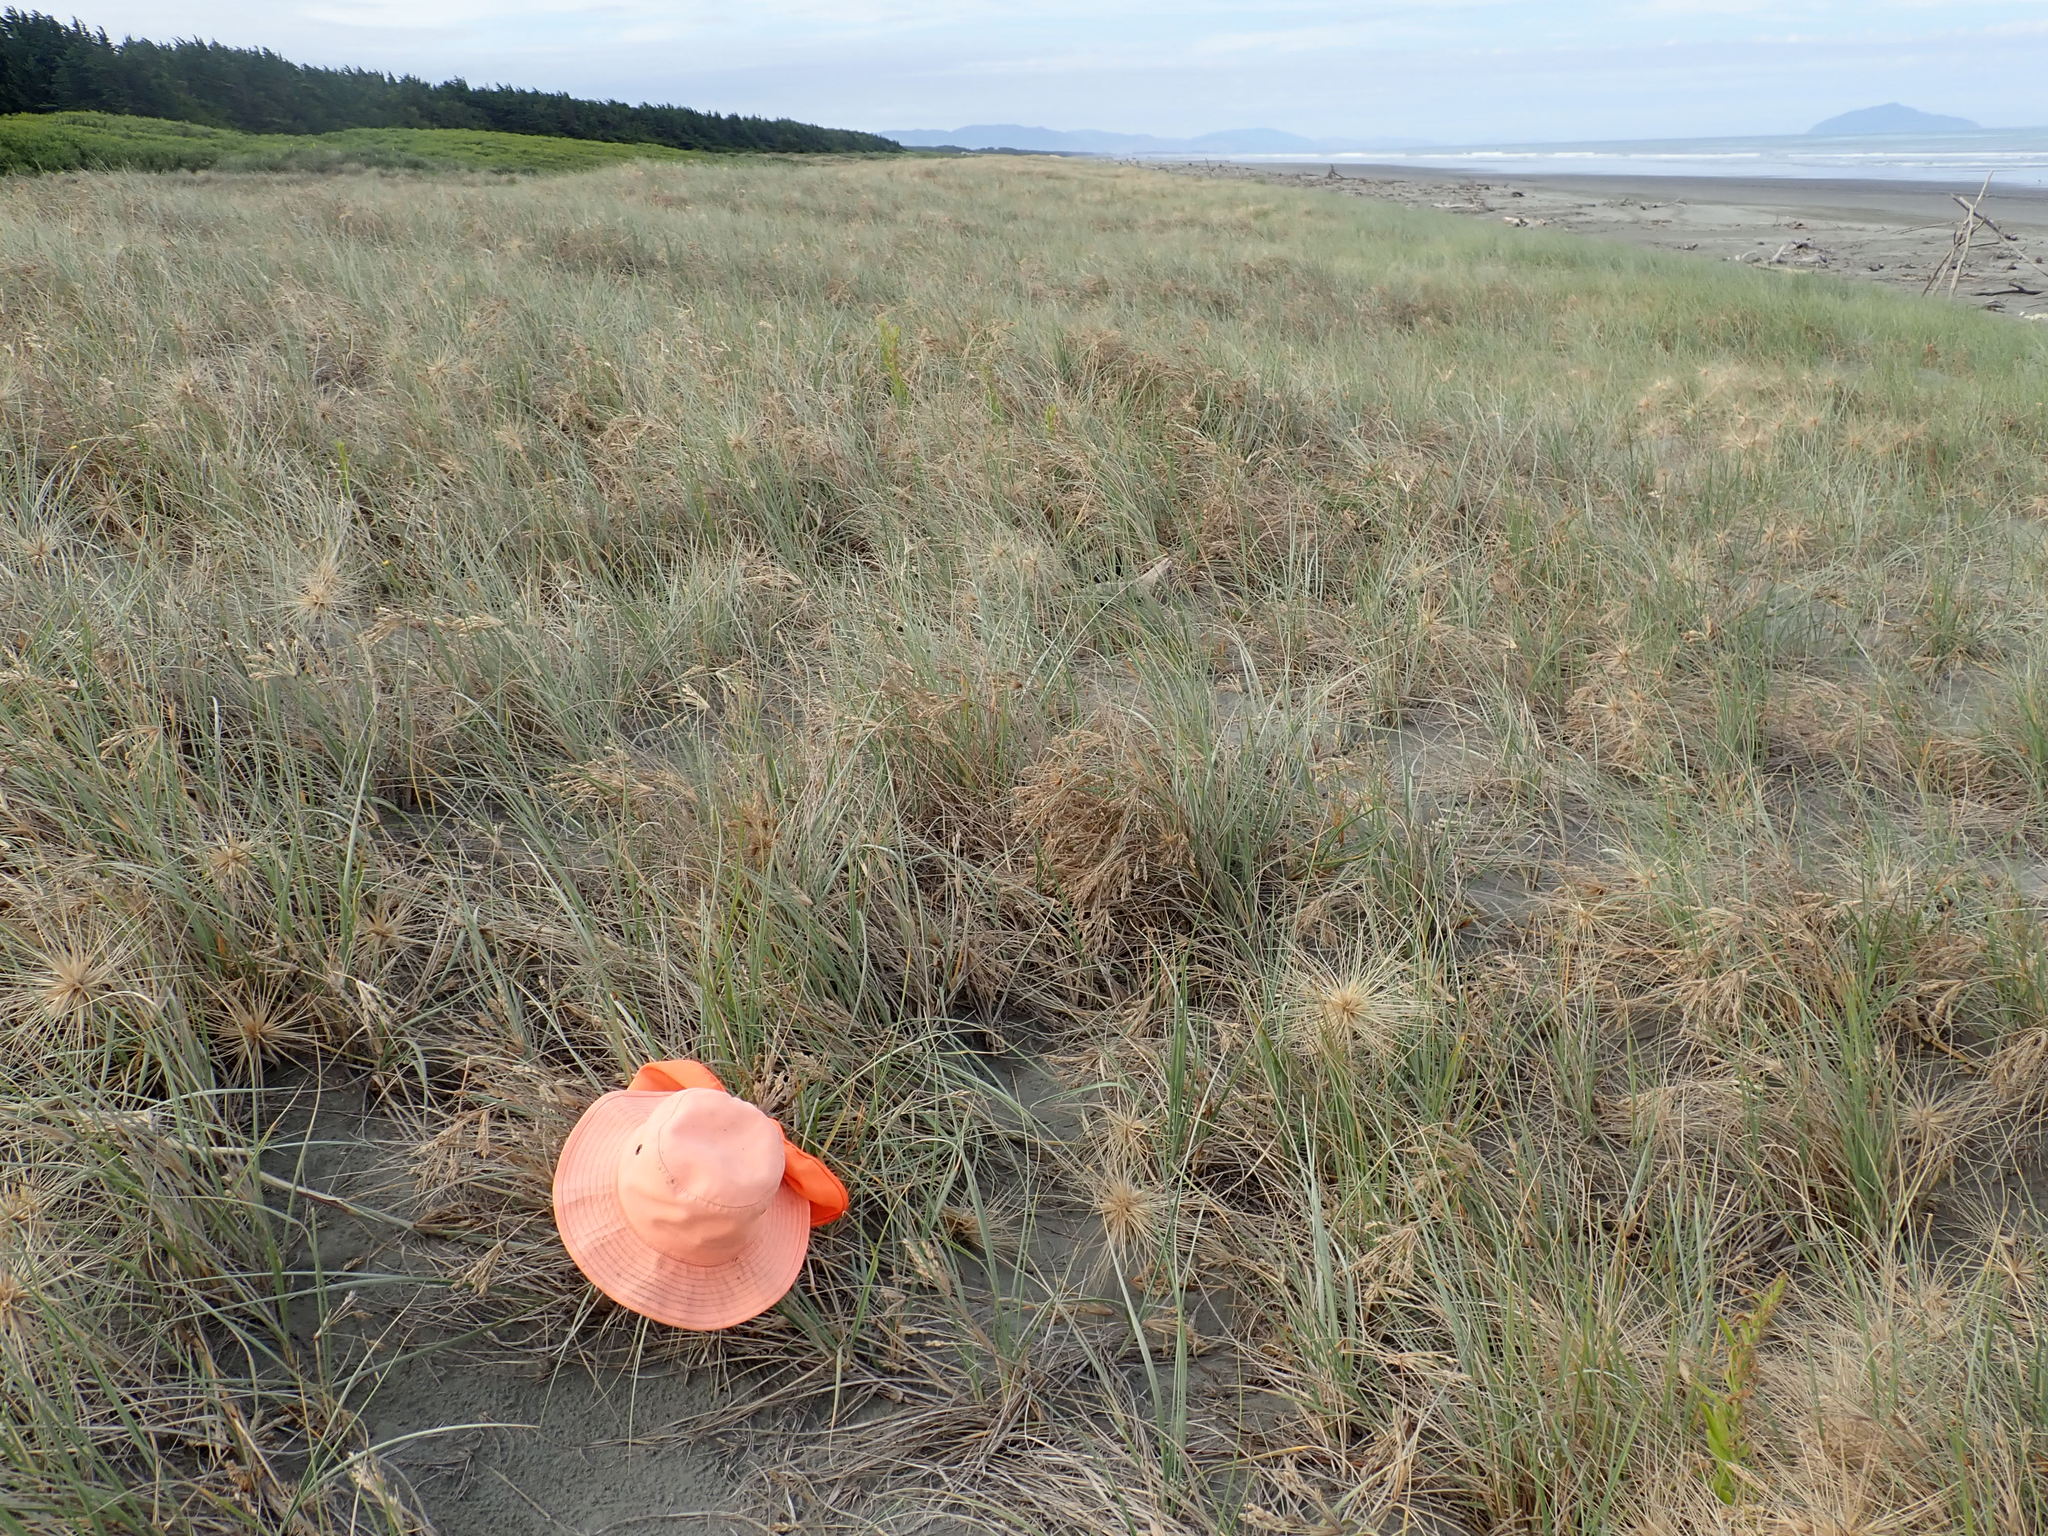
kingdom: Animalia
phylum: Arthropoda
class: Arachnida
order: Araneae
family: Theridiidae
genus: Latrodectus
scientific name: Latrodectus katipo
